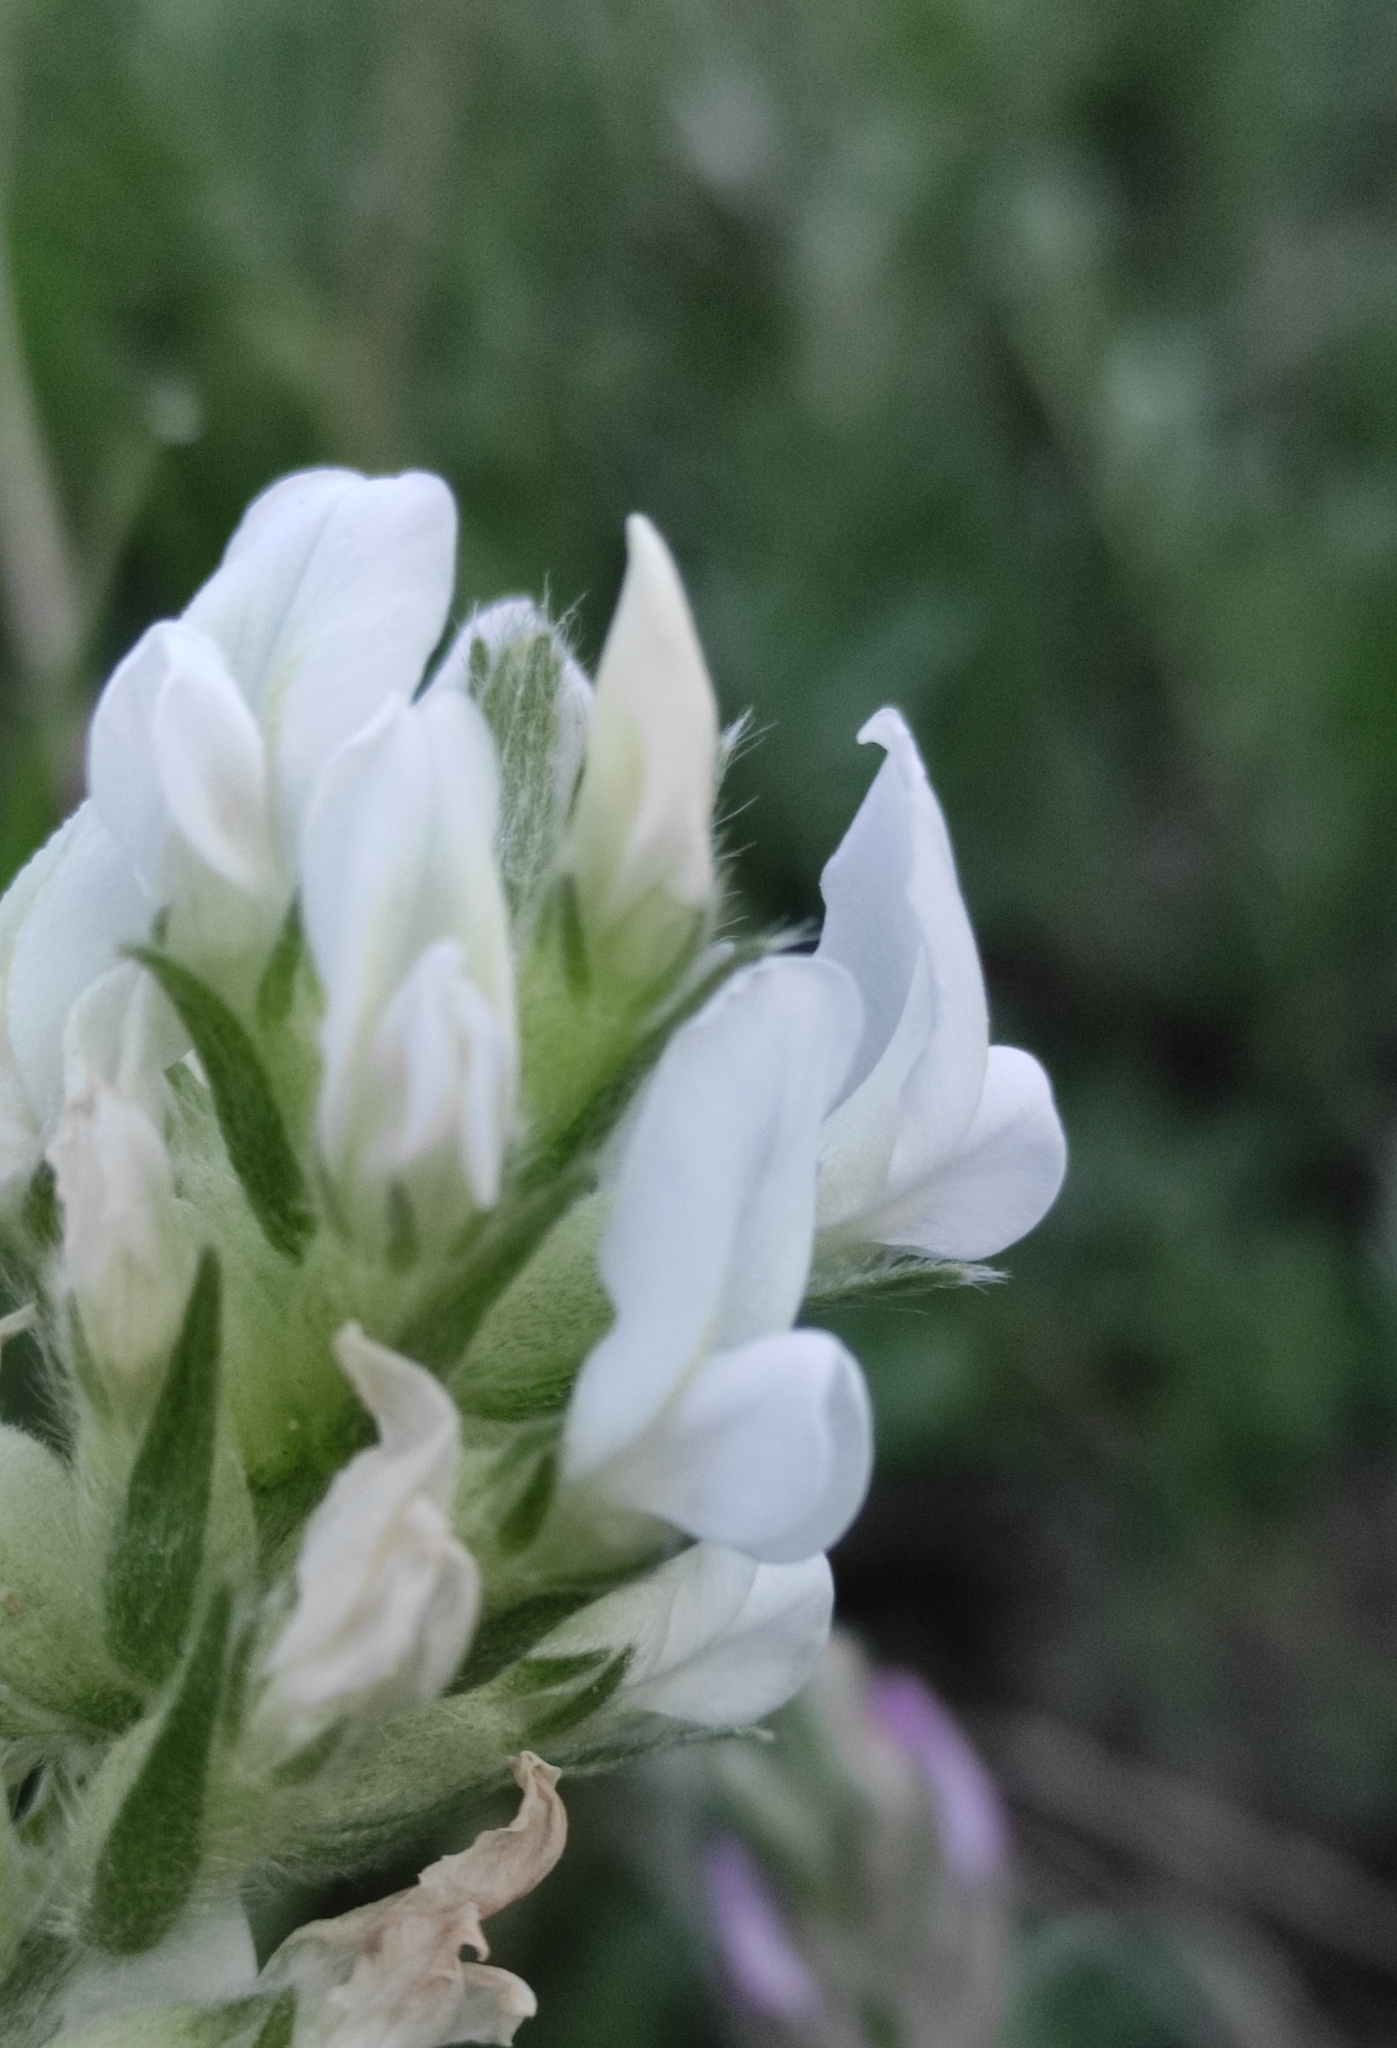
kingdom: Plantae
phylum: Tracheophyta
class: Magnoliopsida
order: Fabales
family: Fabaceae
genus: Oxytropis
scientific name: Oxytropis strobilacea
